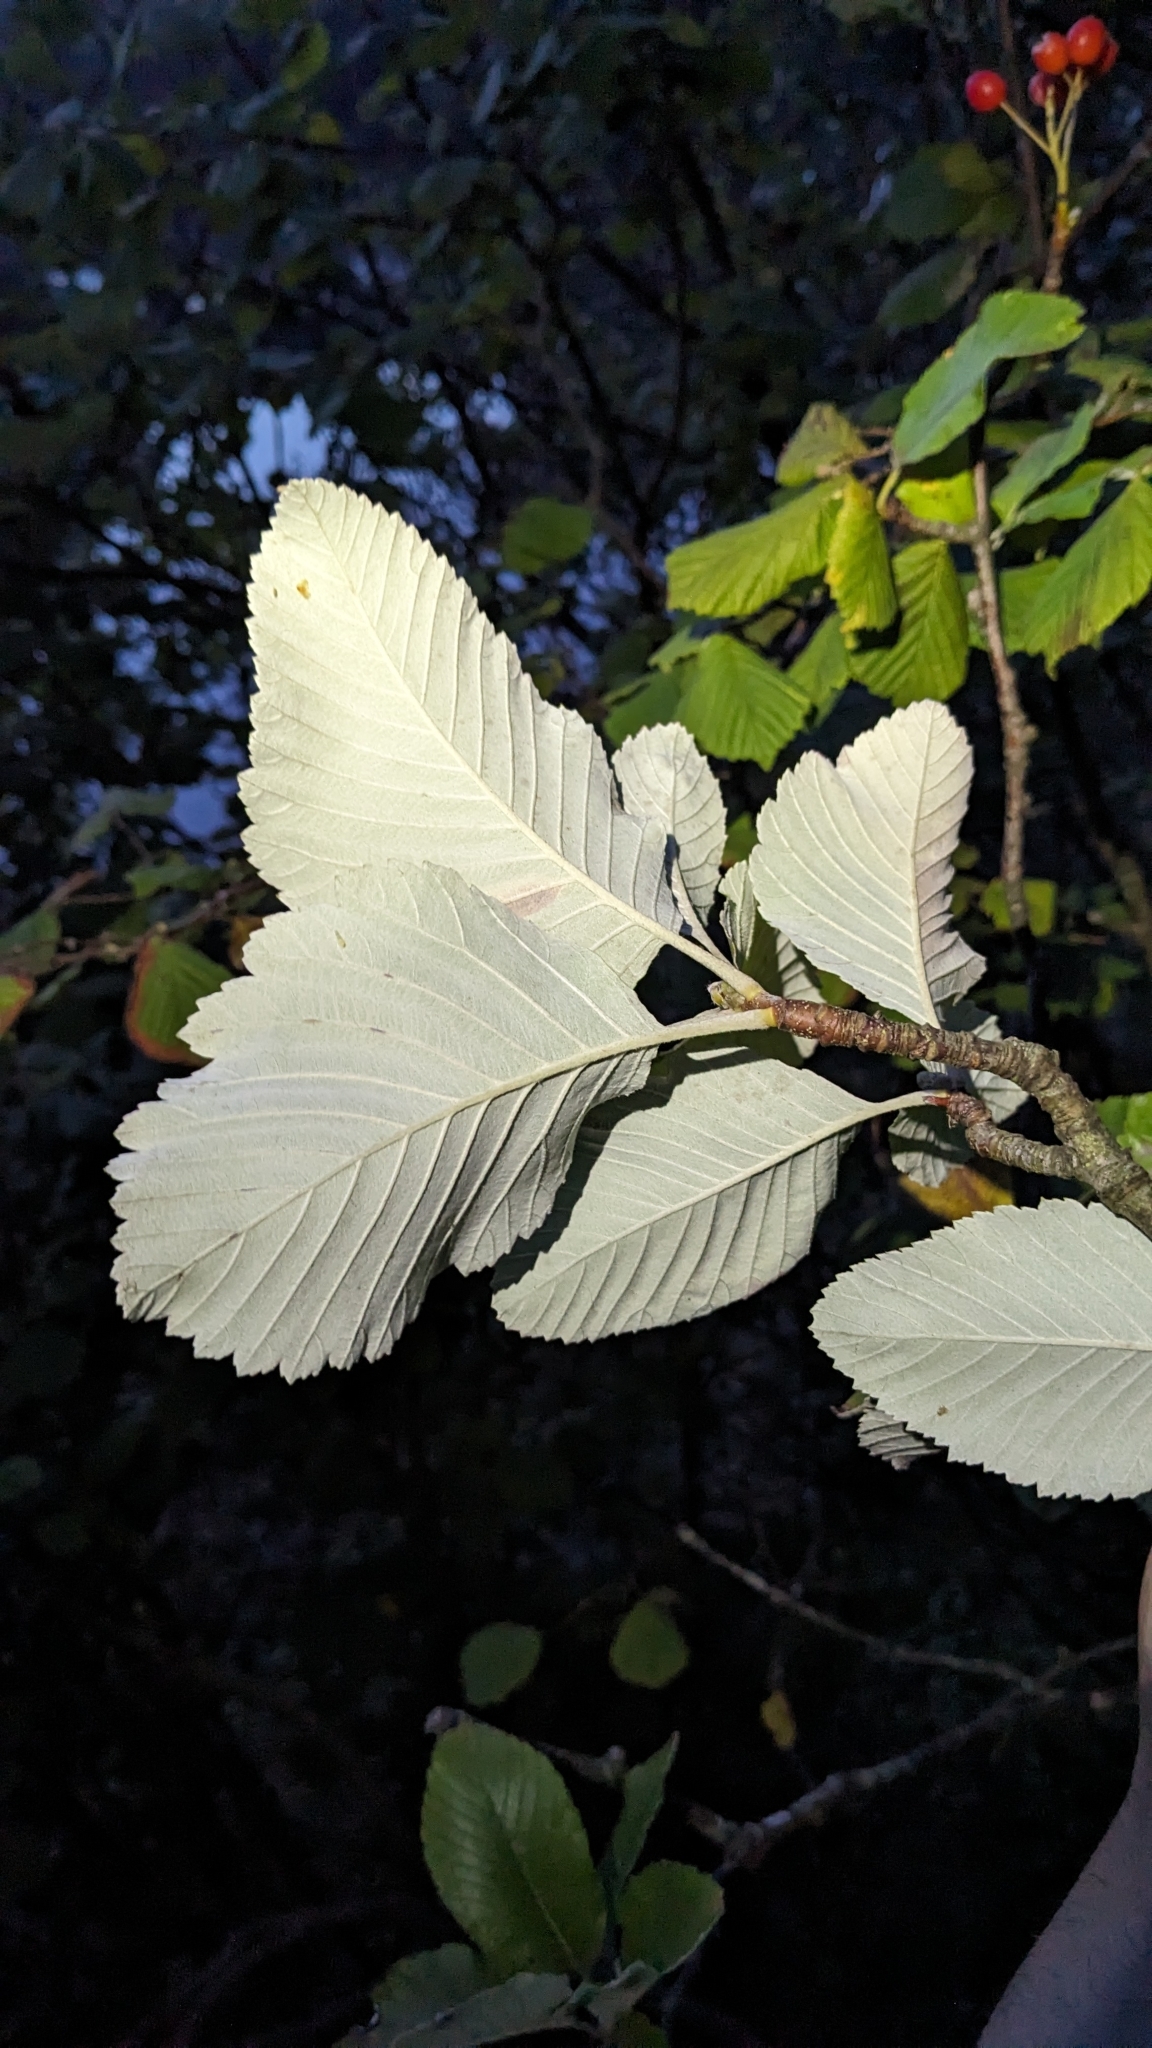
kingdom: Plantae
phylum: Tracheophyta
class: Magnoliopsida
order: Rosales
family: Rosaceae
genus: Aria
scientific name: Aria edulis
